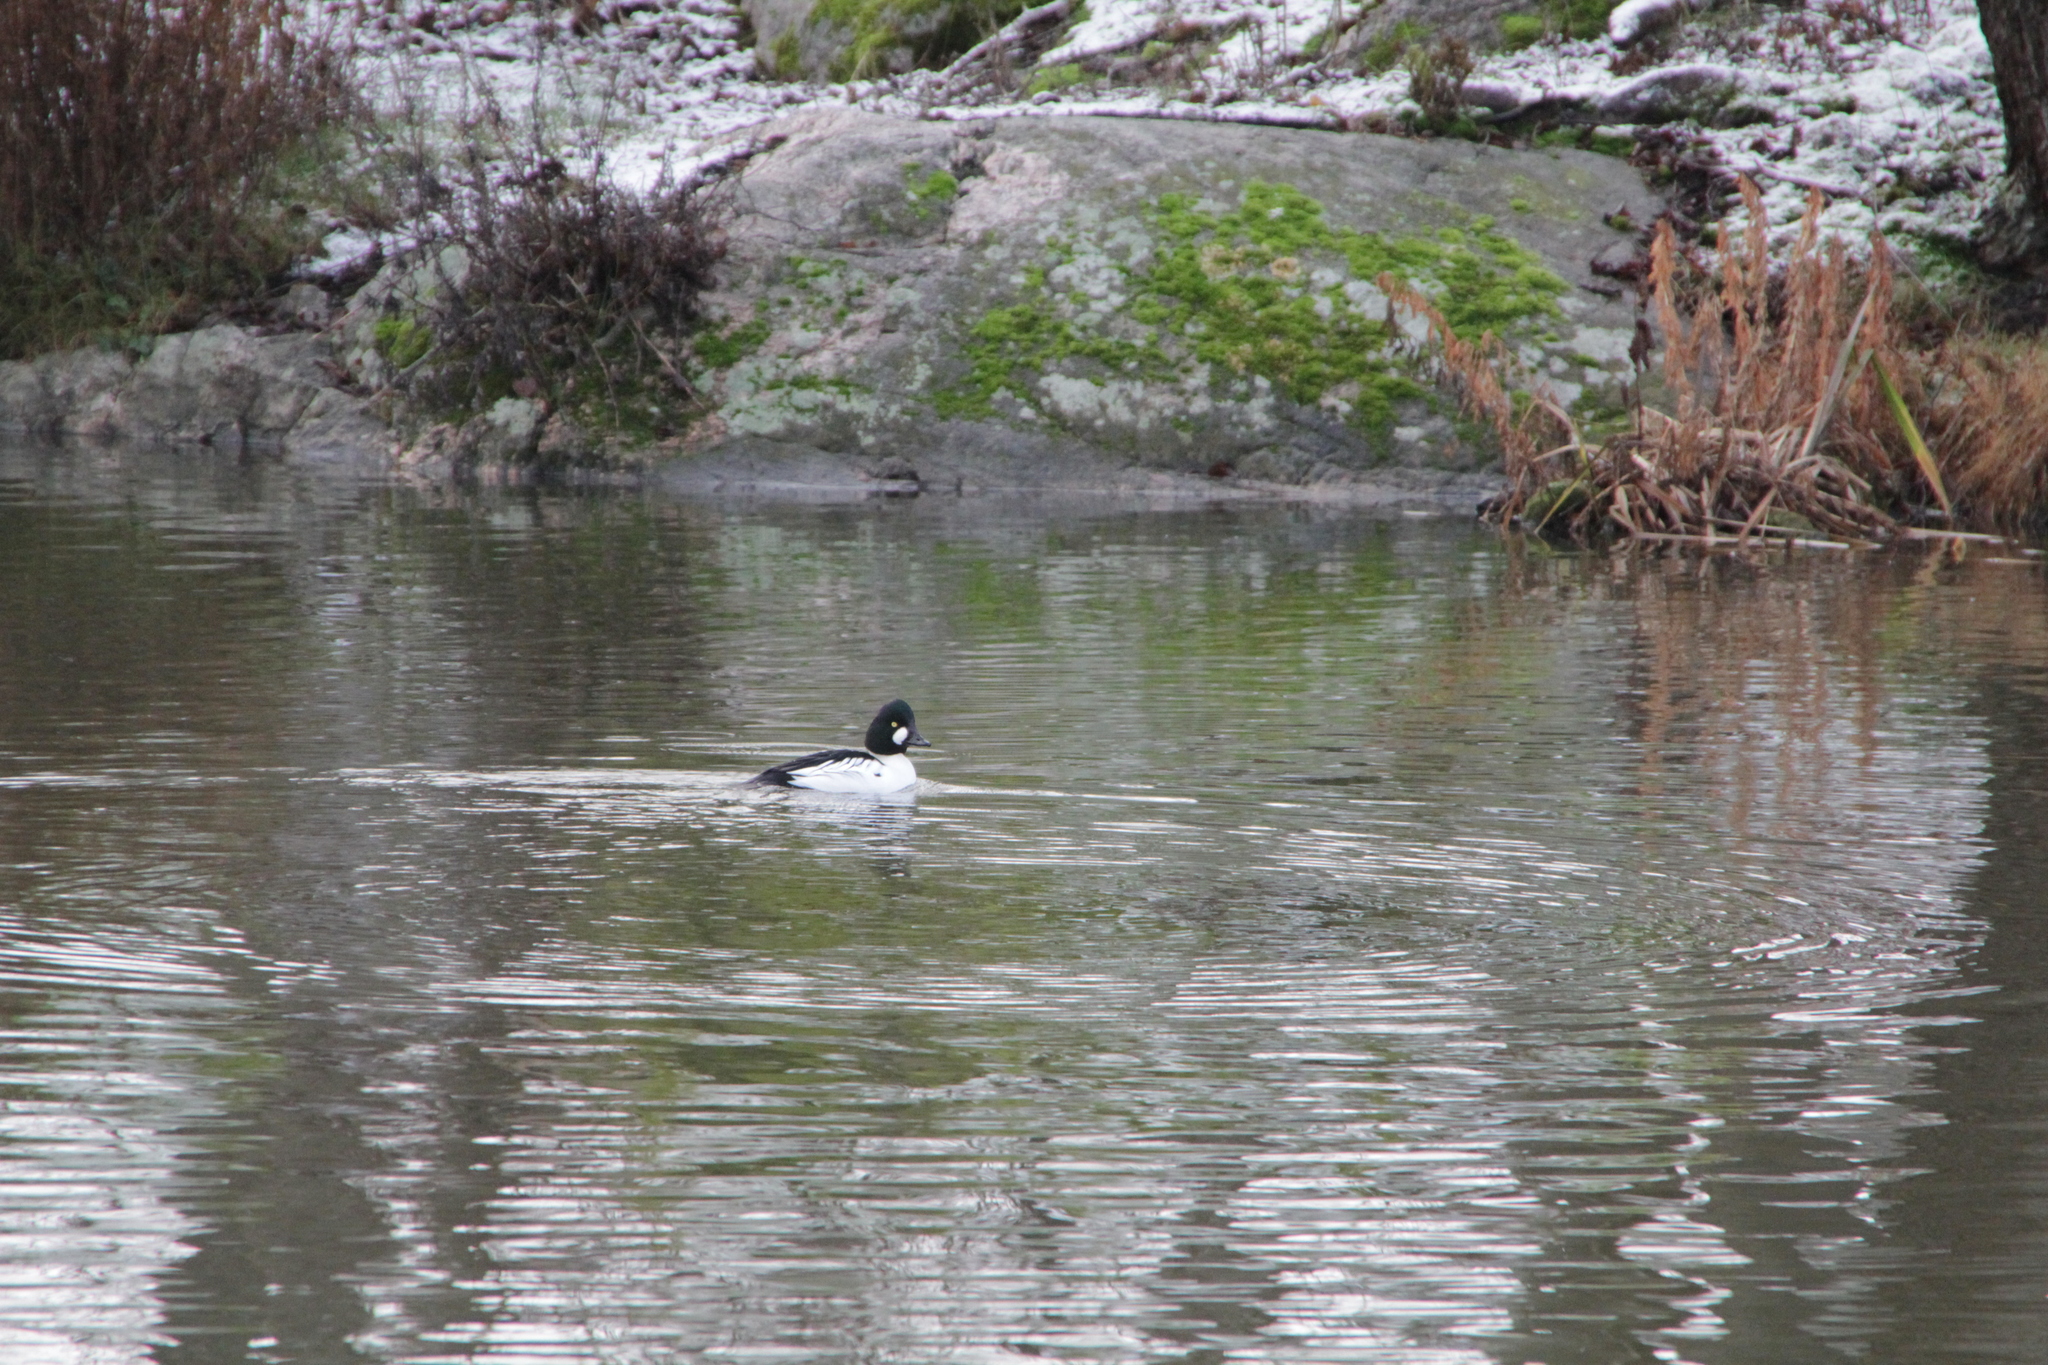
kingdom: Animalia
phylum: Chordata
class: Aves
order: Anseriformes
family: Anatidae
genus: Bucephala
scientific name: Bucephala clangula
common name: Common goldeneye
